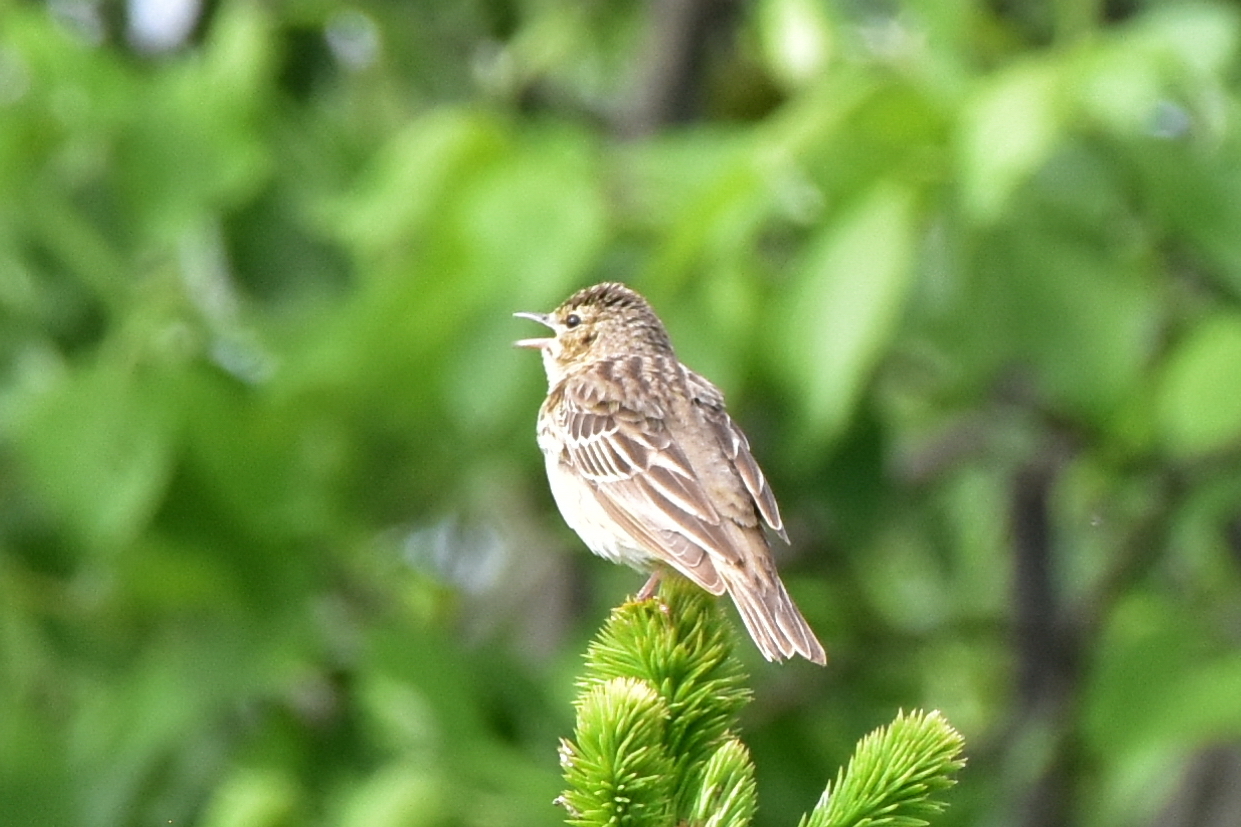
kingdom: Animalia
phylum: Chordata
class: Aves
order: Passeriformes
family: Motacillidae
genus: Anthus
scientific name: Anthus trivialis
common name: Tree pipit
